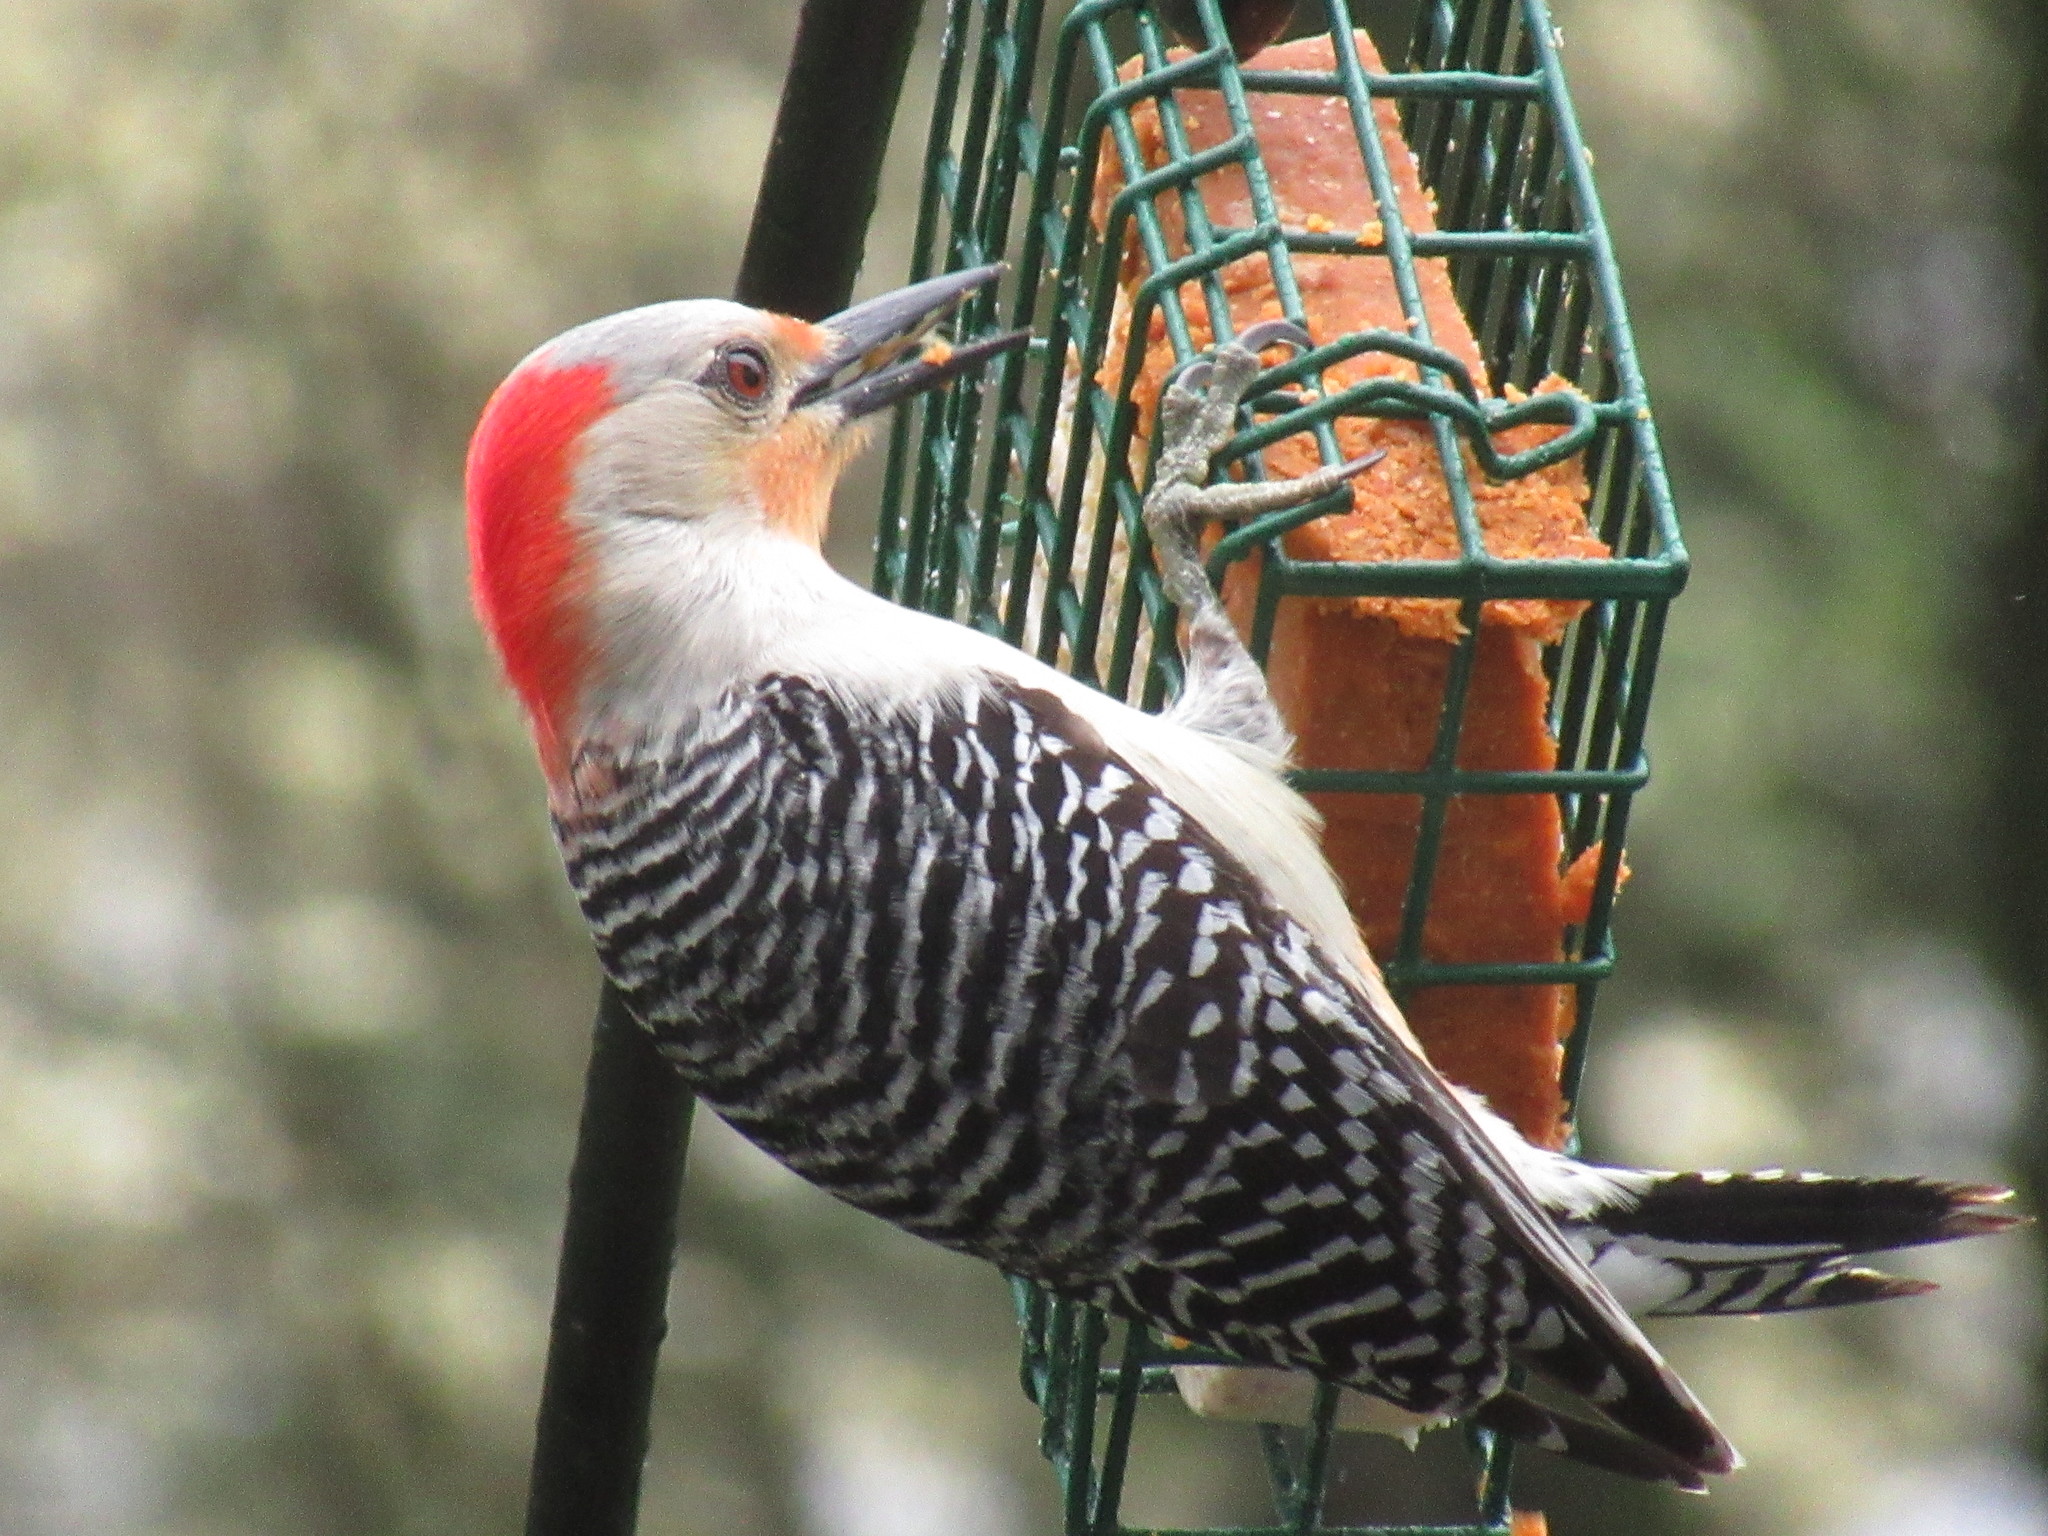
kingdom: Animalia
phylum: Chordata
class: Aves
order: Piciformes
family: Picidae
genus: Melanerpes
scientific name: Melanerpes carolinus
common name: Red-bellied woodpecker
